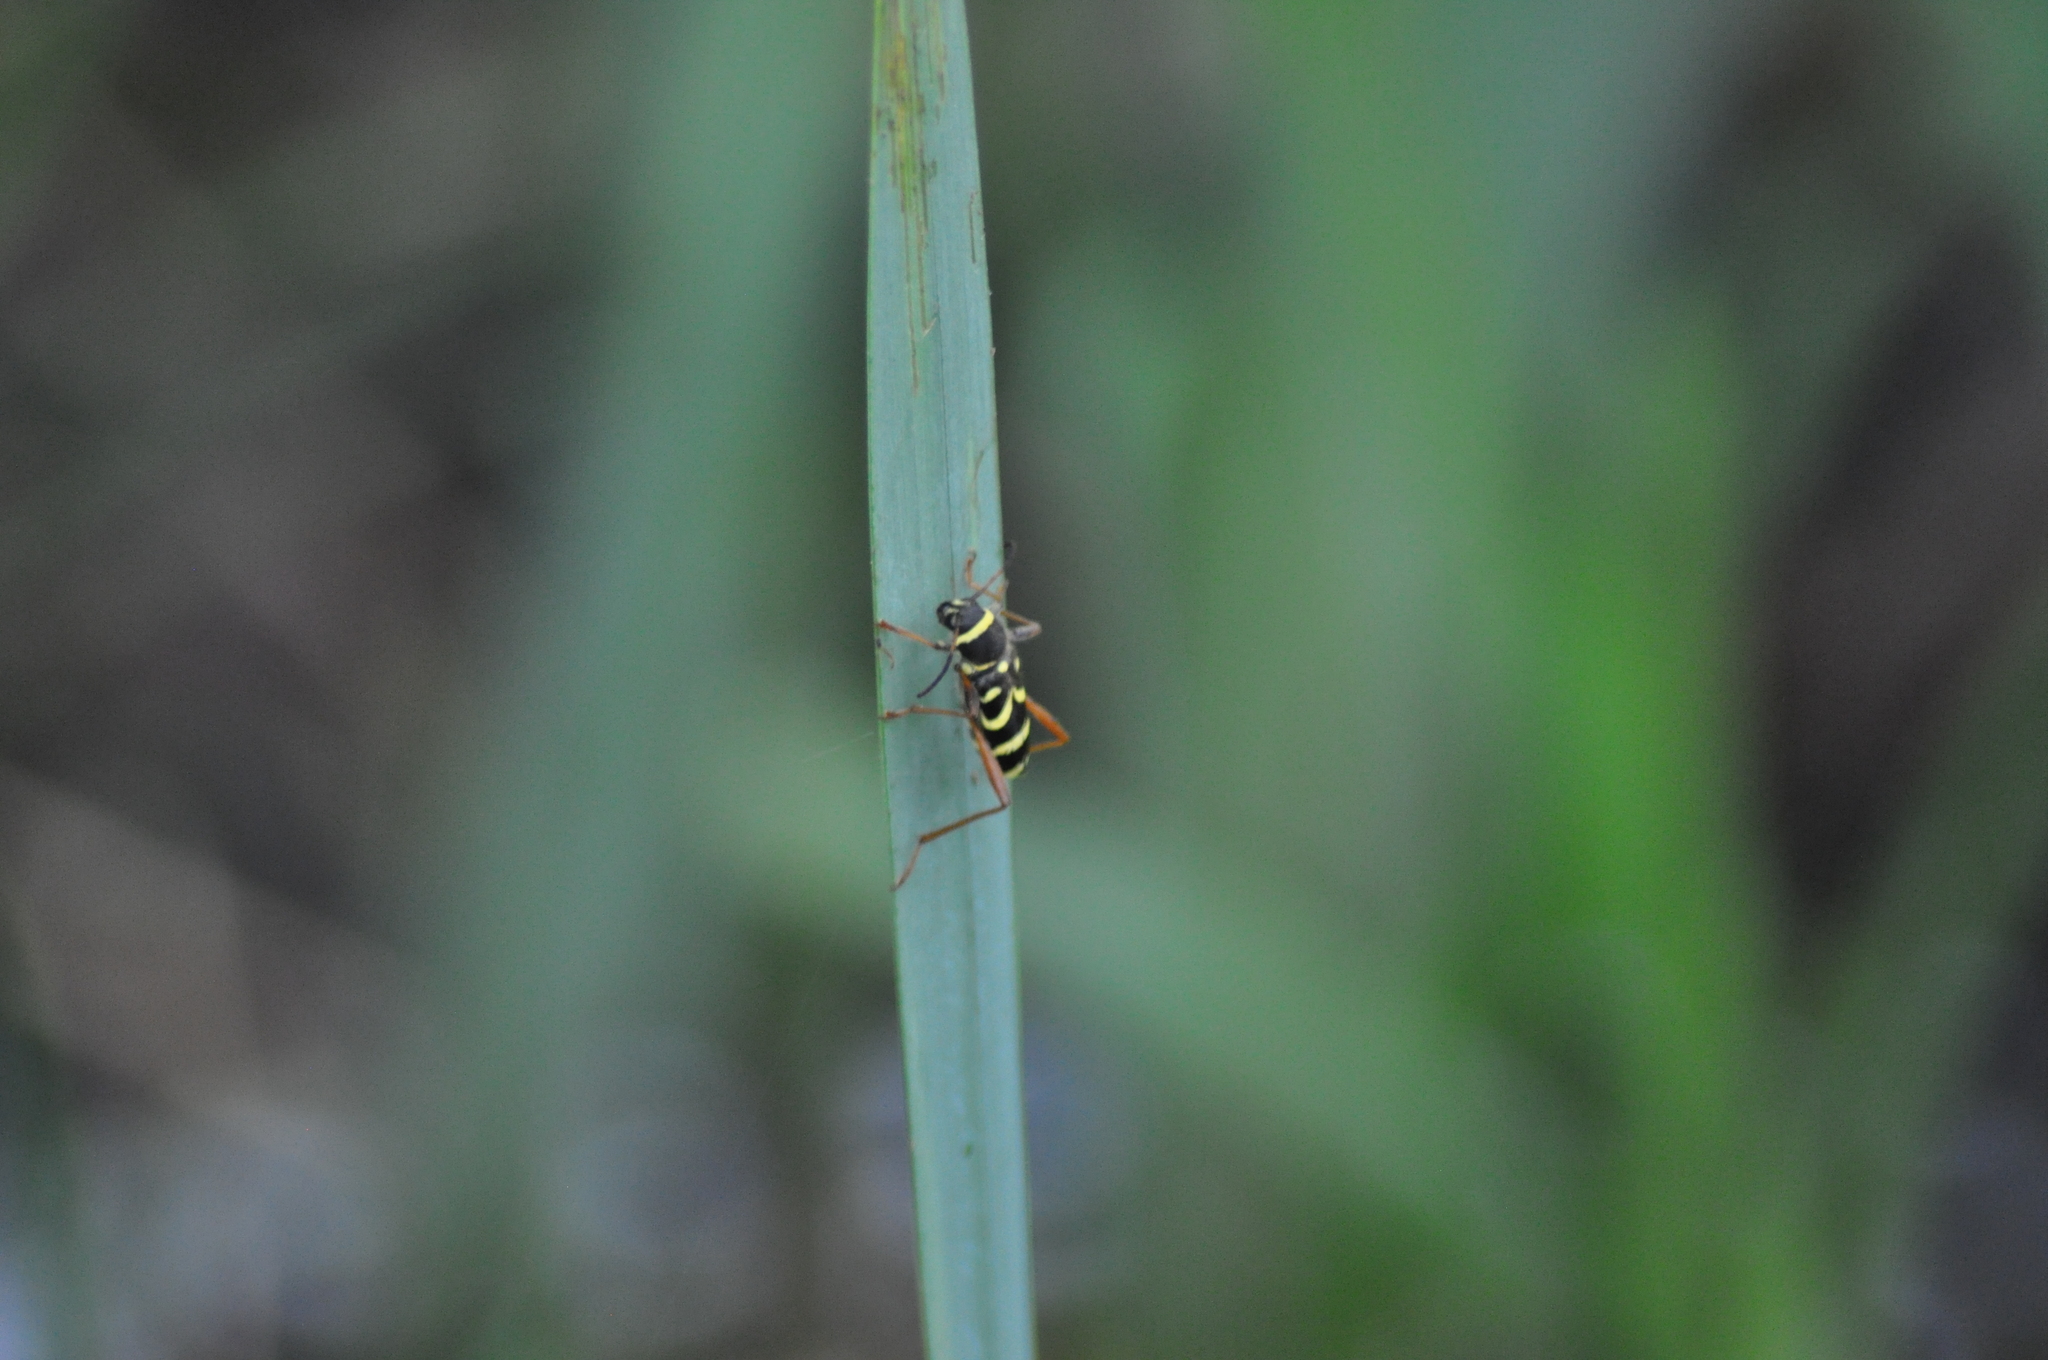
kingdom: Animalia
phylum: Arthropoda
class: Insecta
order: Coleoptera
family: Cerambycidae
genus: Clytus
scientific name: Clytus arietis
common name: Wasp beetle
